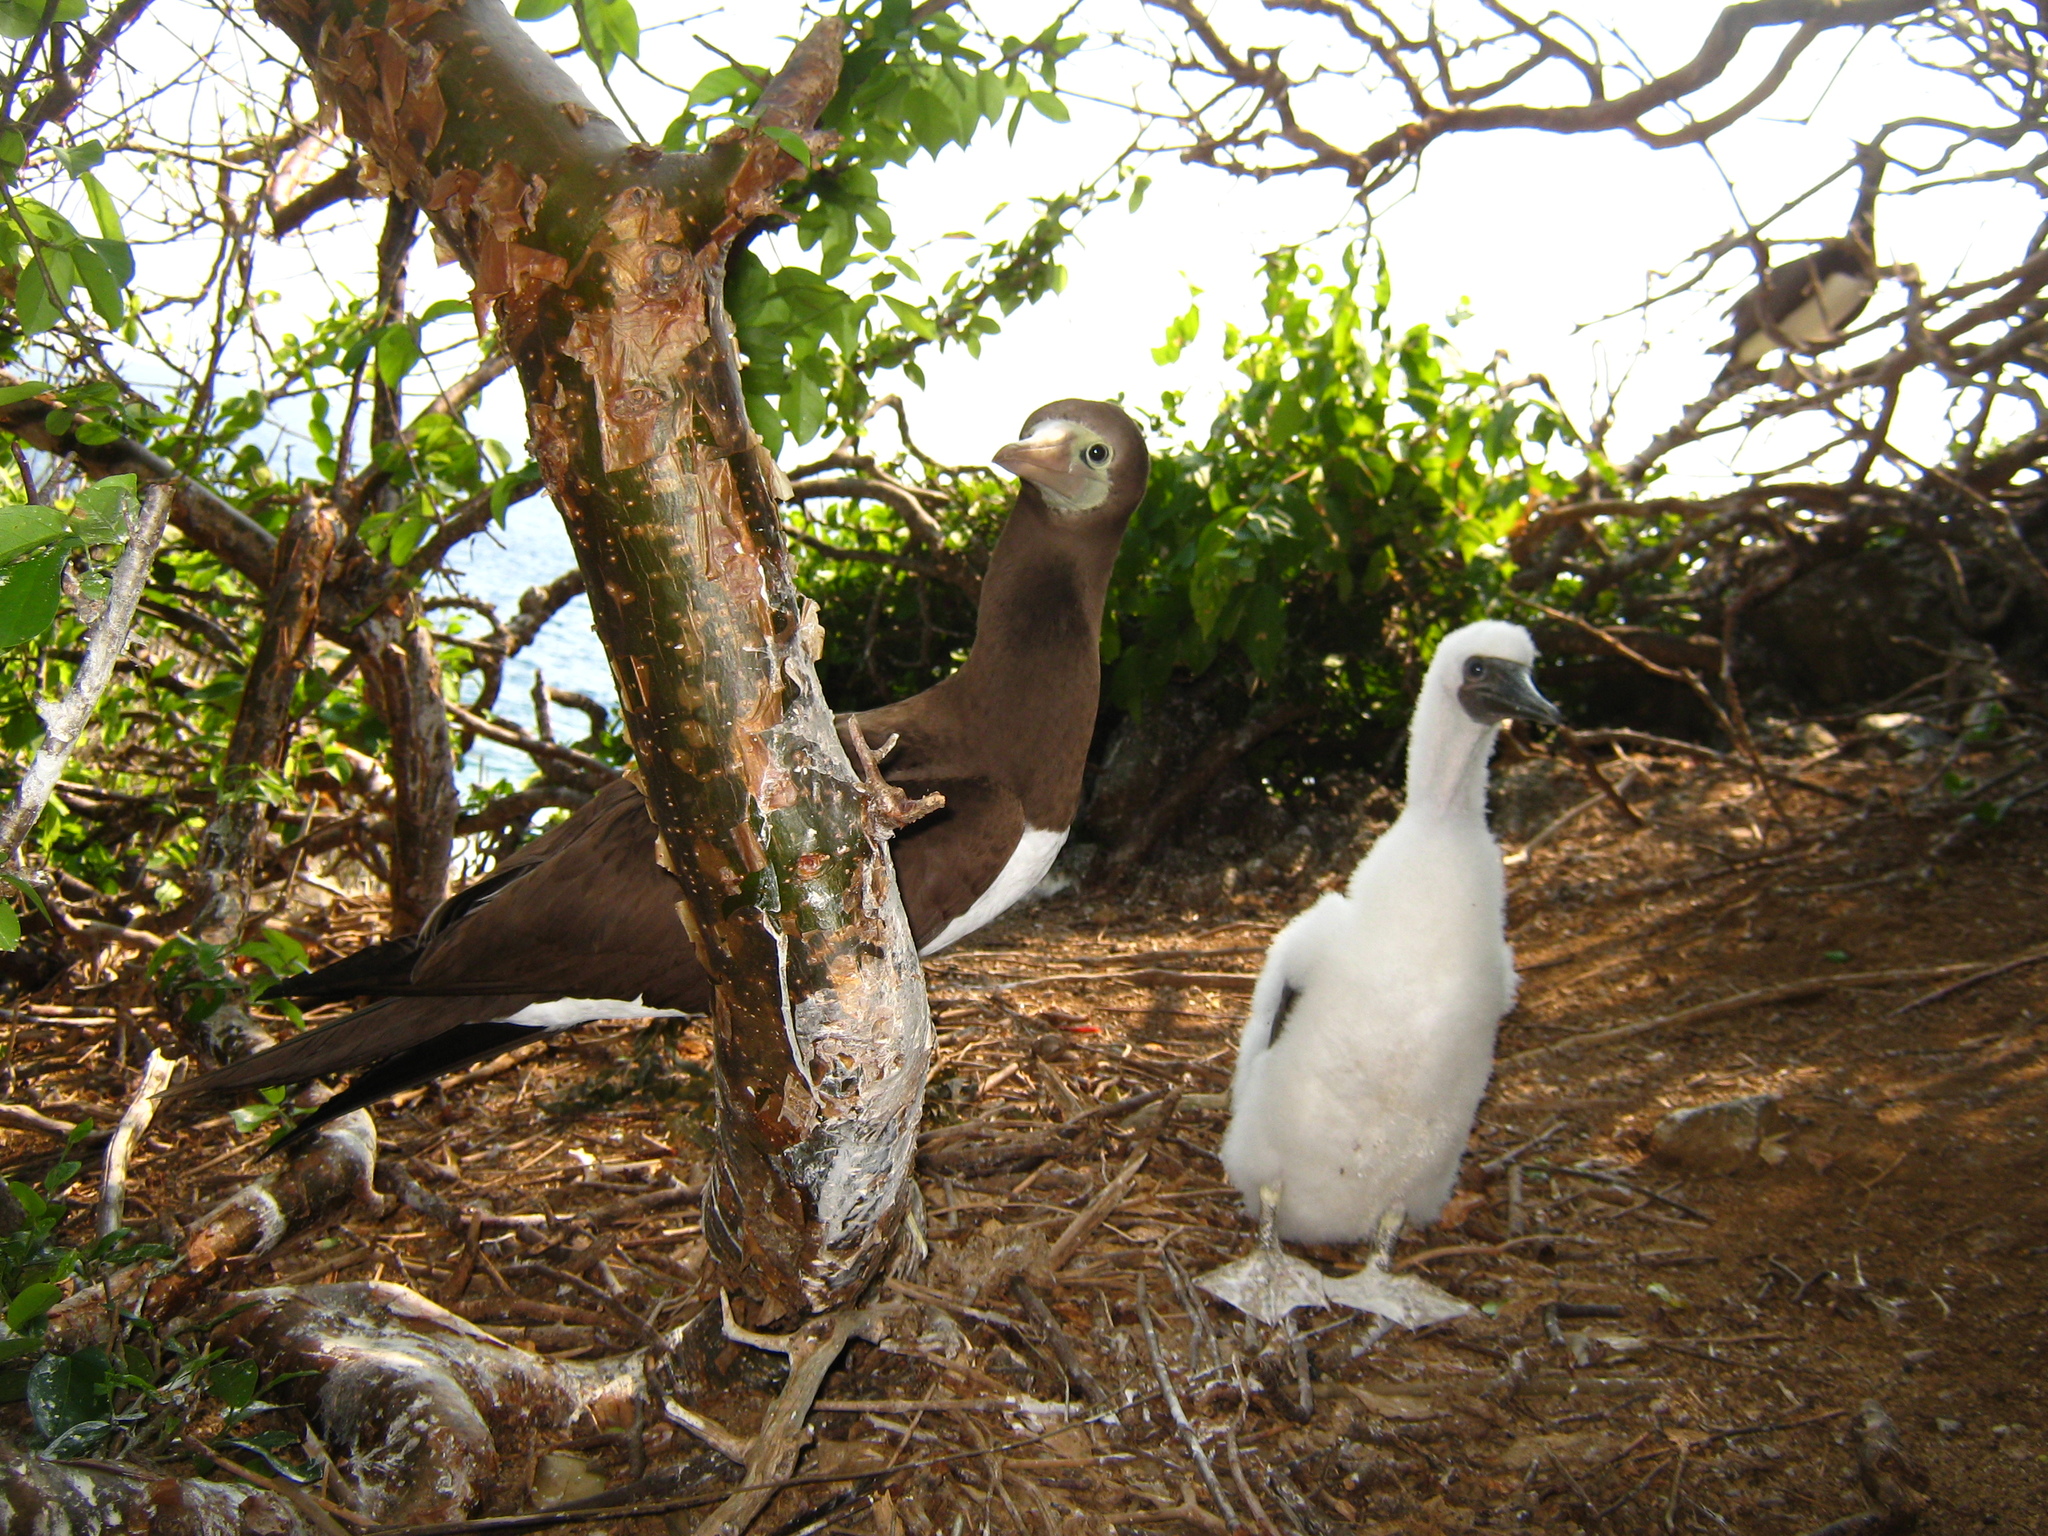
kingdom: Animalia
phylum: Chordata
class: Aves
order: Suliformes
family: Sulidae
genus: Sula
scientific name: Sula leucogaster
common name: Brown booby
